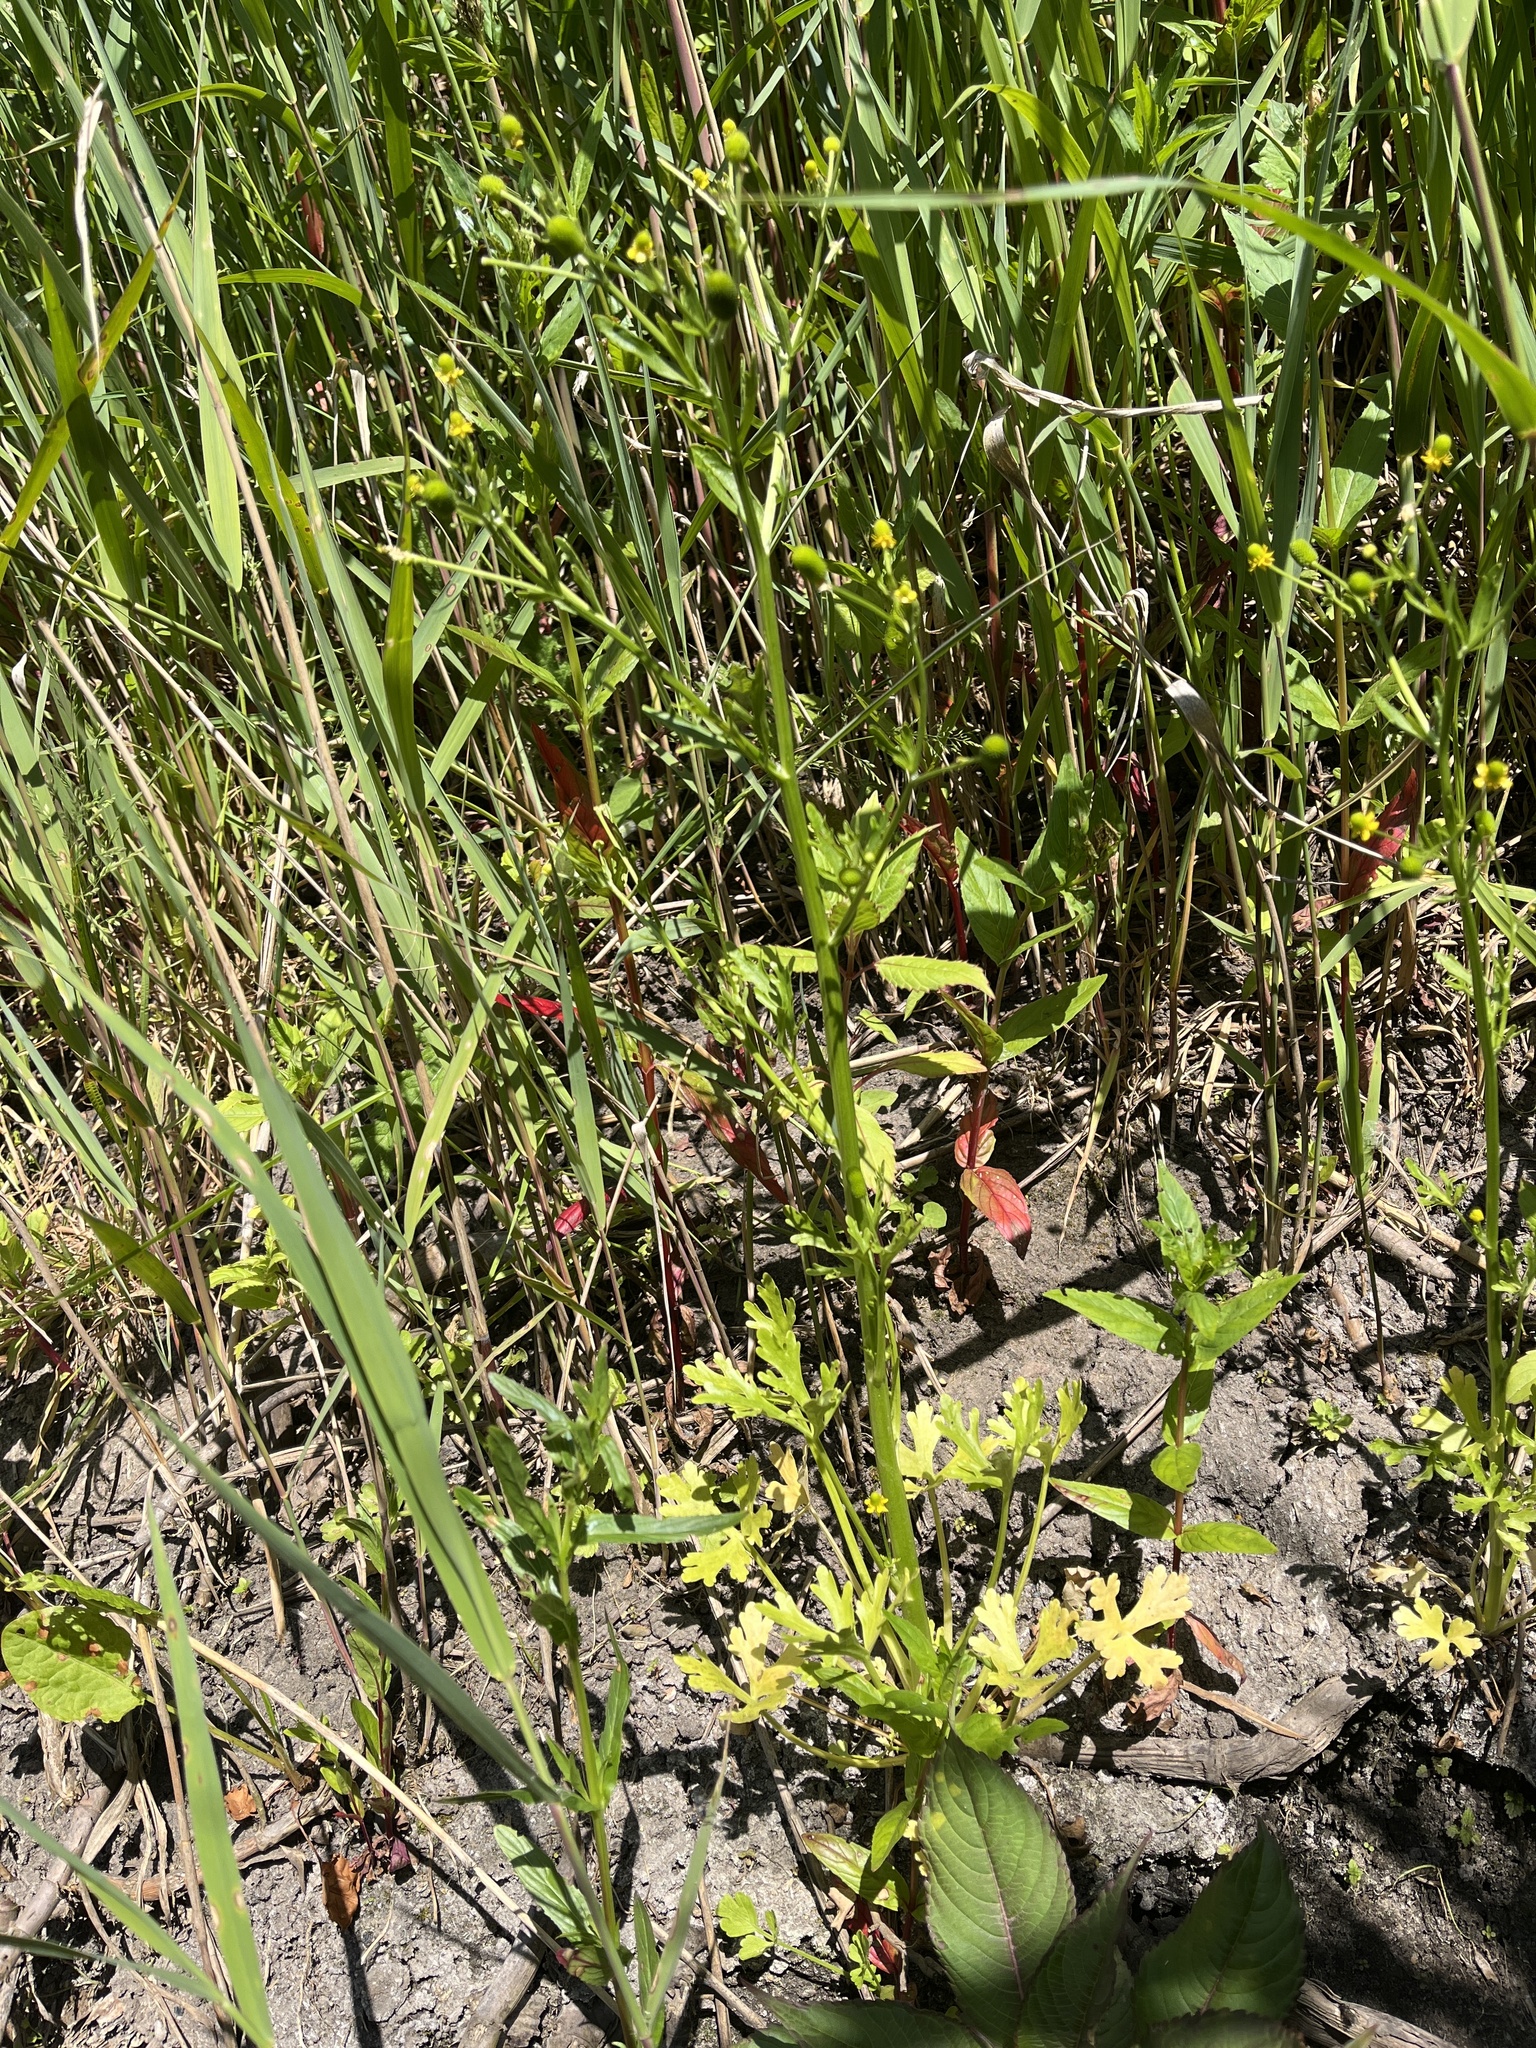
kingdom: Plantae
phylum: Tracheophyta
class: Magnoliopsida
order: Ranunculales
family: Ranunculaceae
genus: Ranunculus
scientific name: Ranunculus sceleratus
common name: Celery-leaved buttercup
